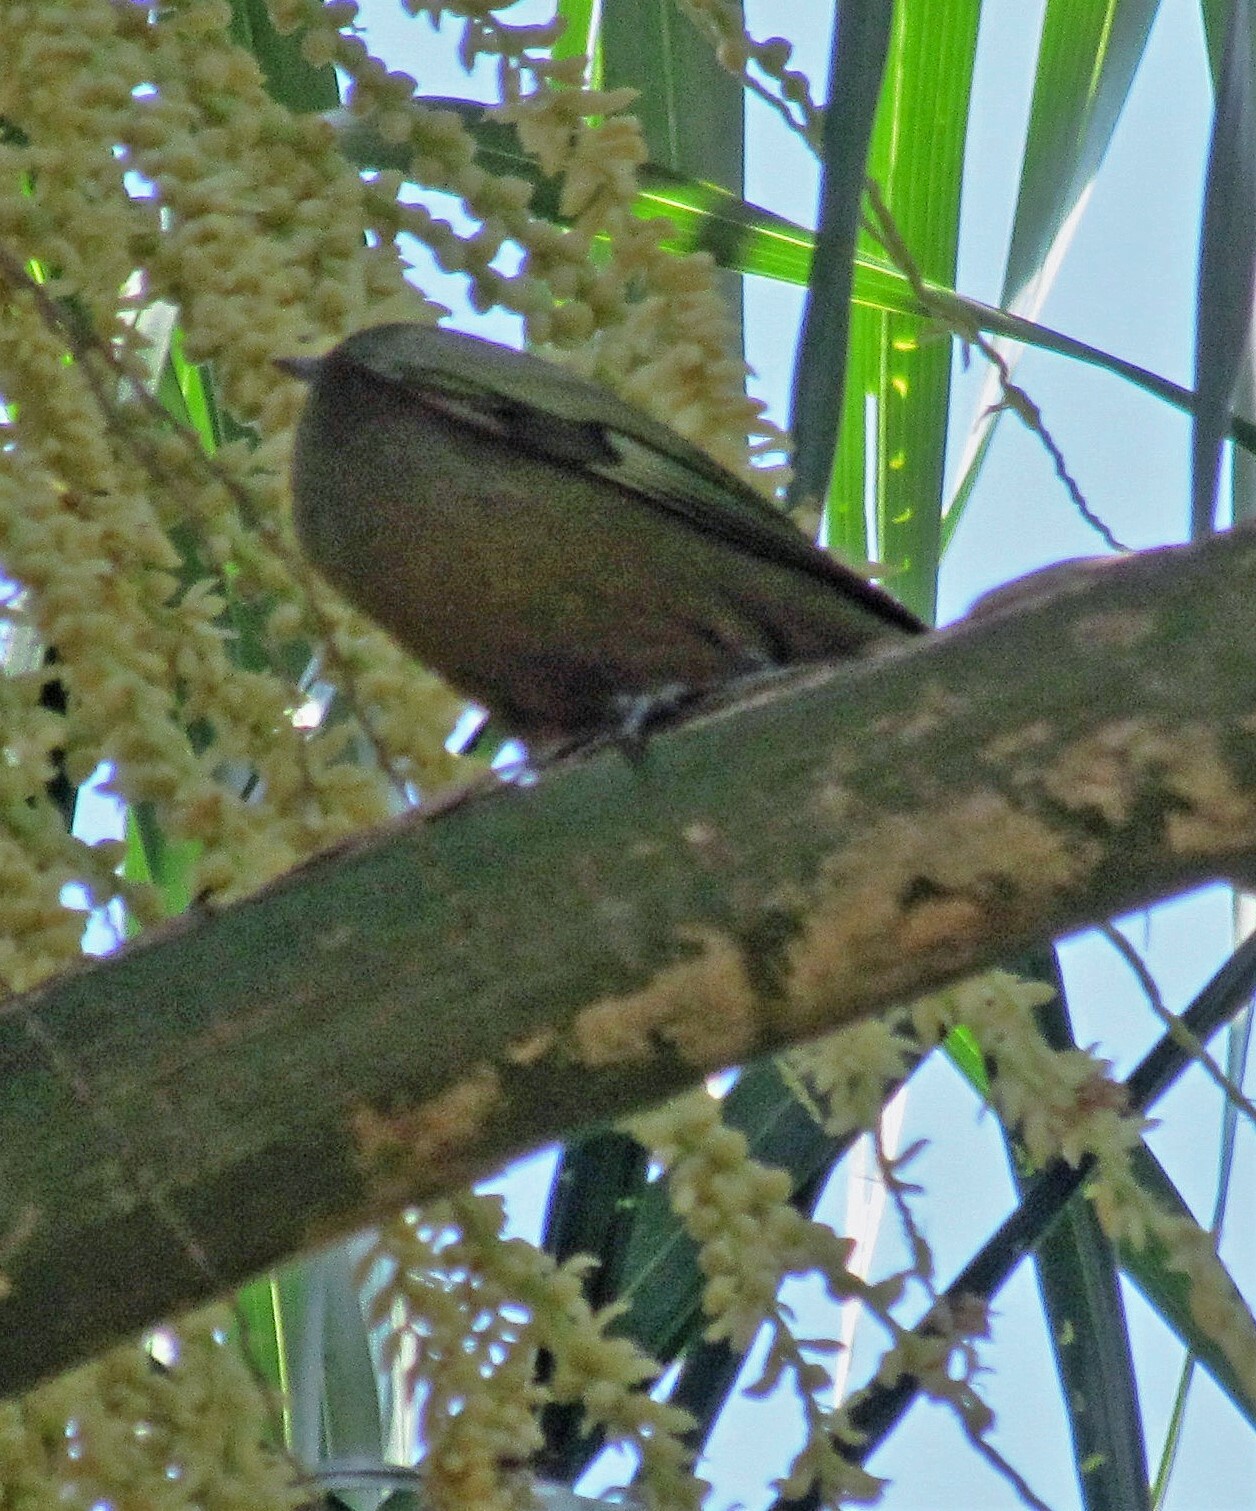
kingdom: Animalia
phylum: Chordata
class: Aves
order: Passeriformes
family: Thraupidae
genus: Thraupis
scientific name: Thraupis palmarum
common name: Palm tanager
